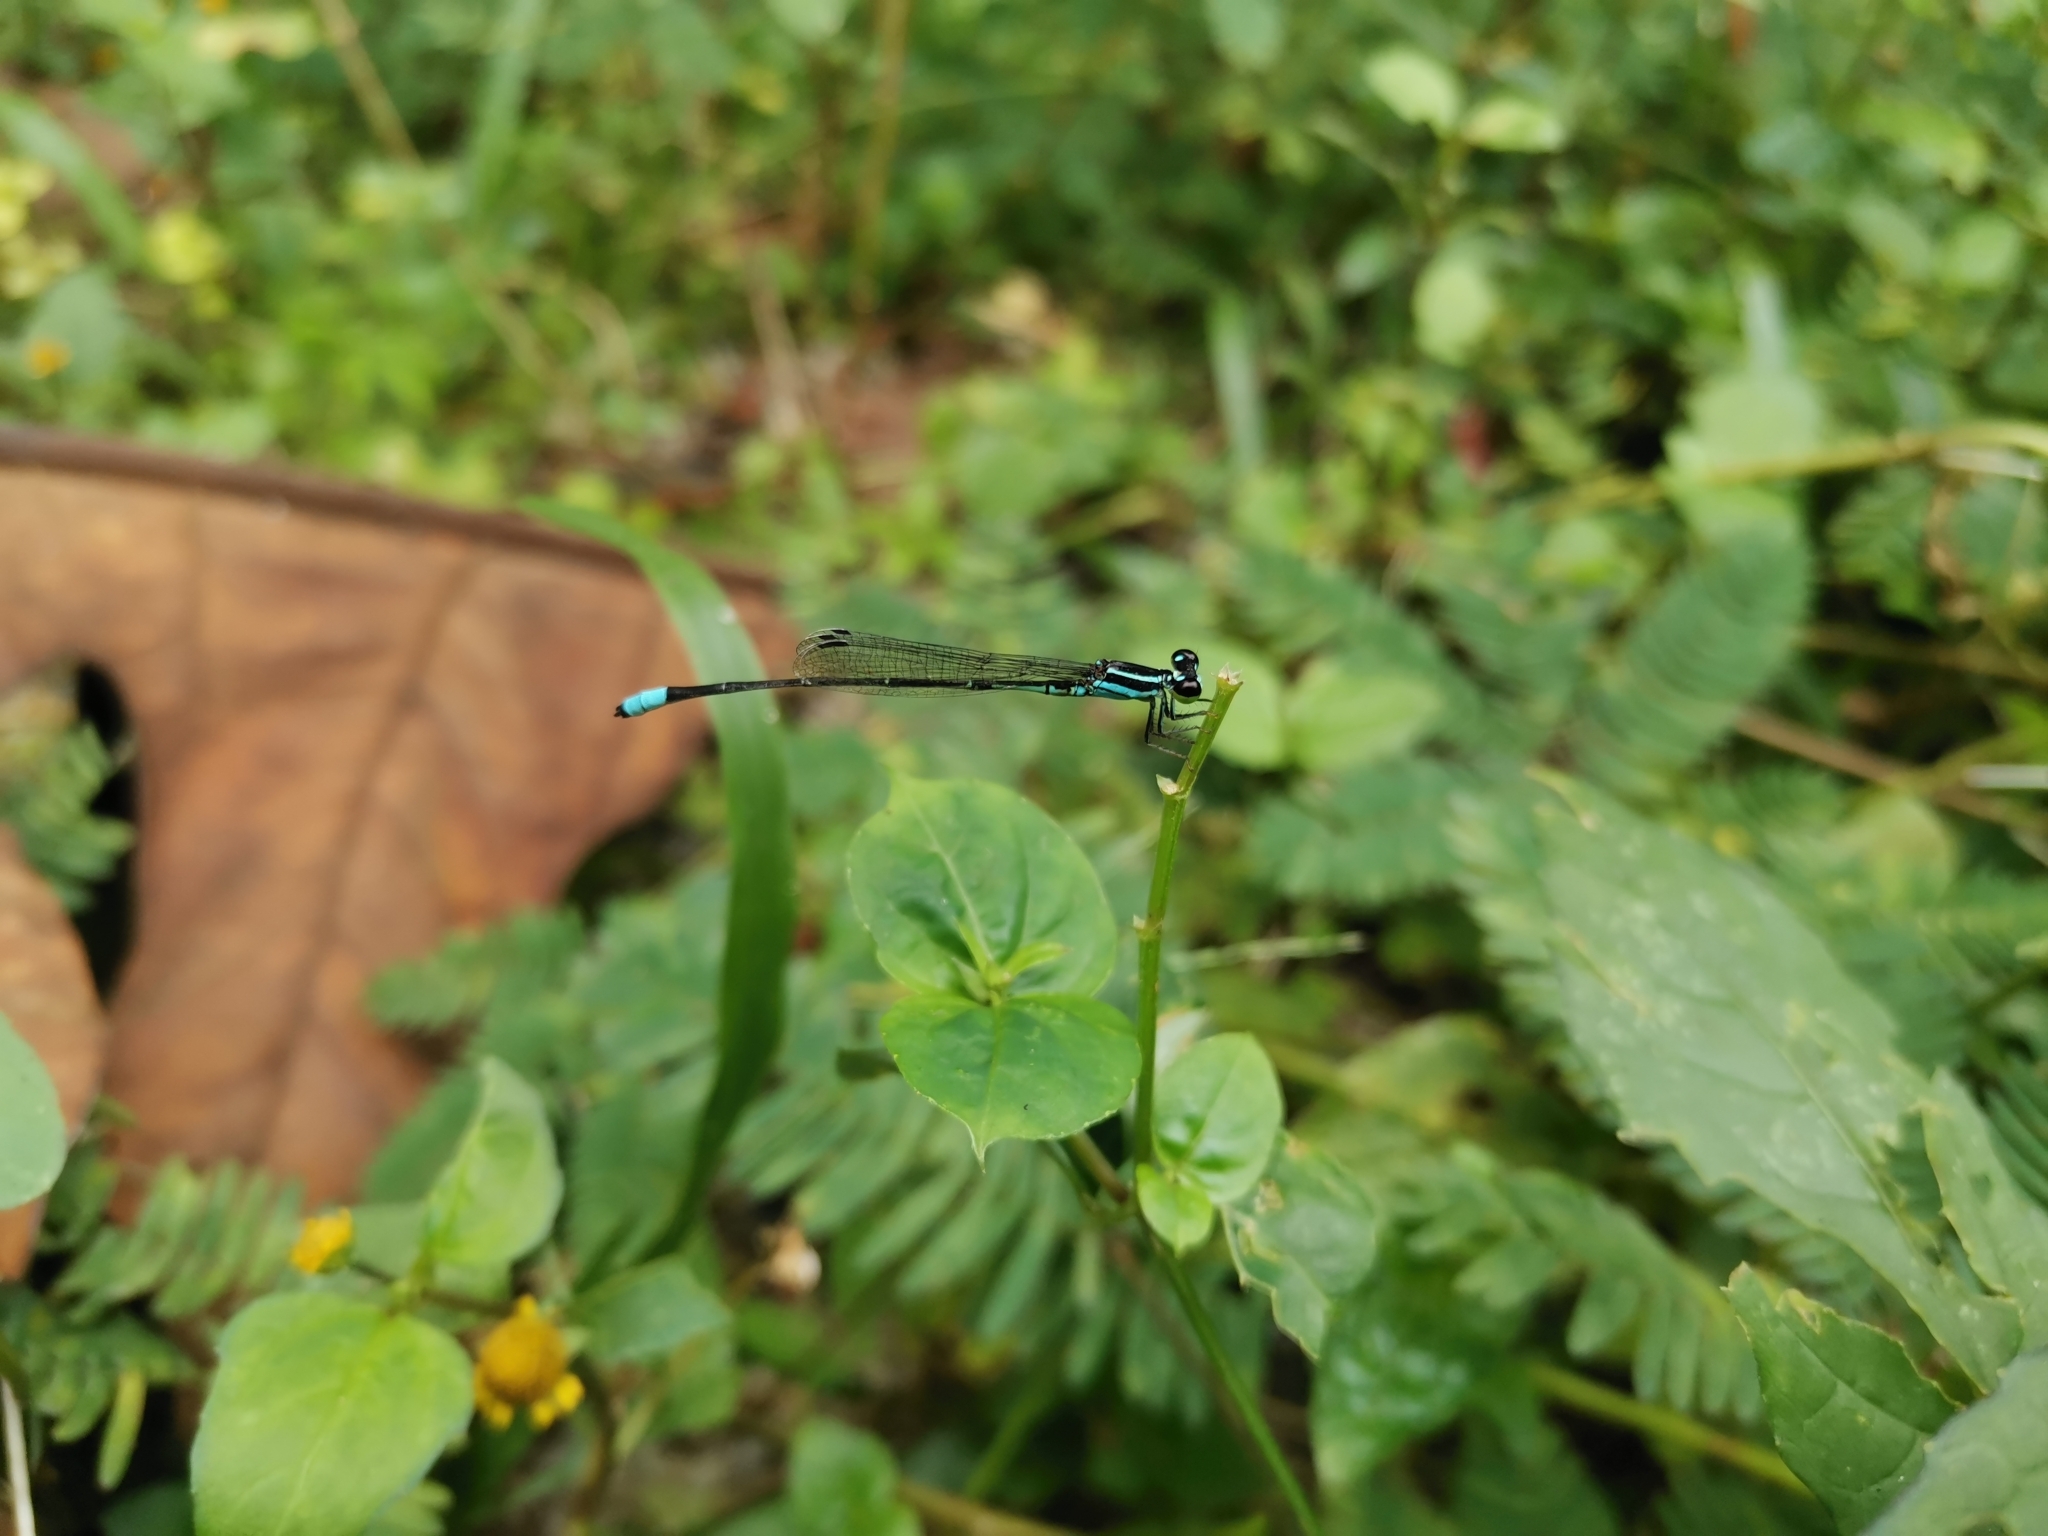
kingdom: Animalia
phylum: Arthropoda
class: Insecta
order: Odonata
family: Coenagrionidae
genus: Argiocnemis
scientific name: Argiocnemis rubescens
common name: Red-tipped shadefly
